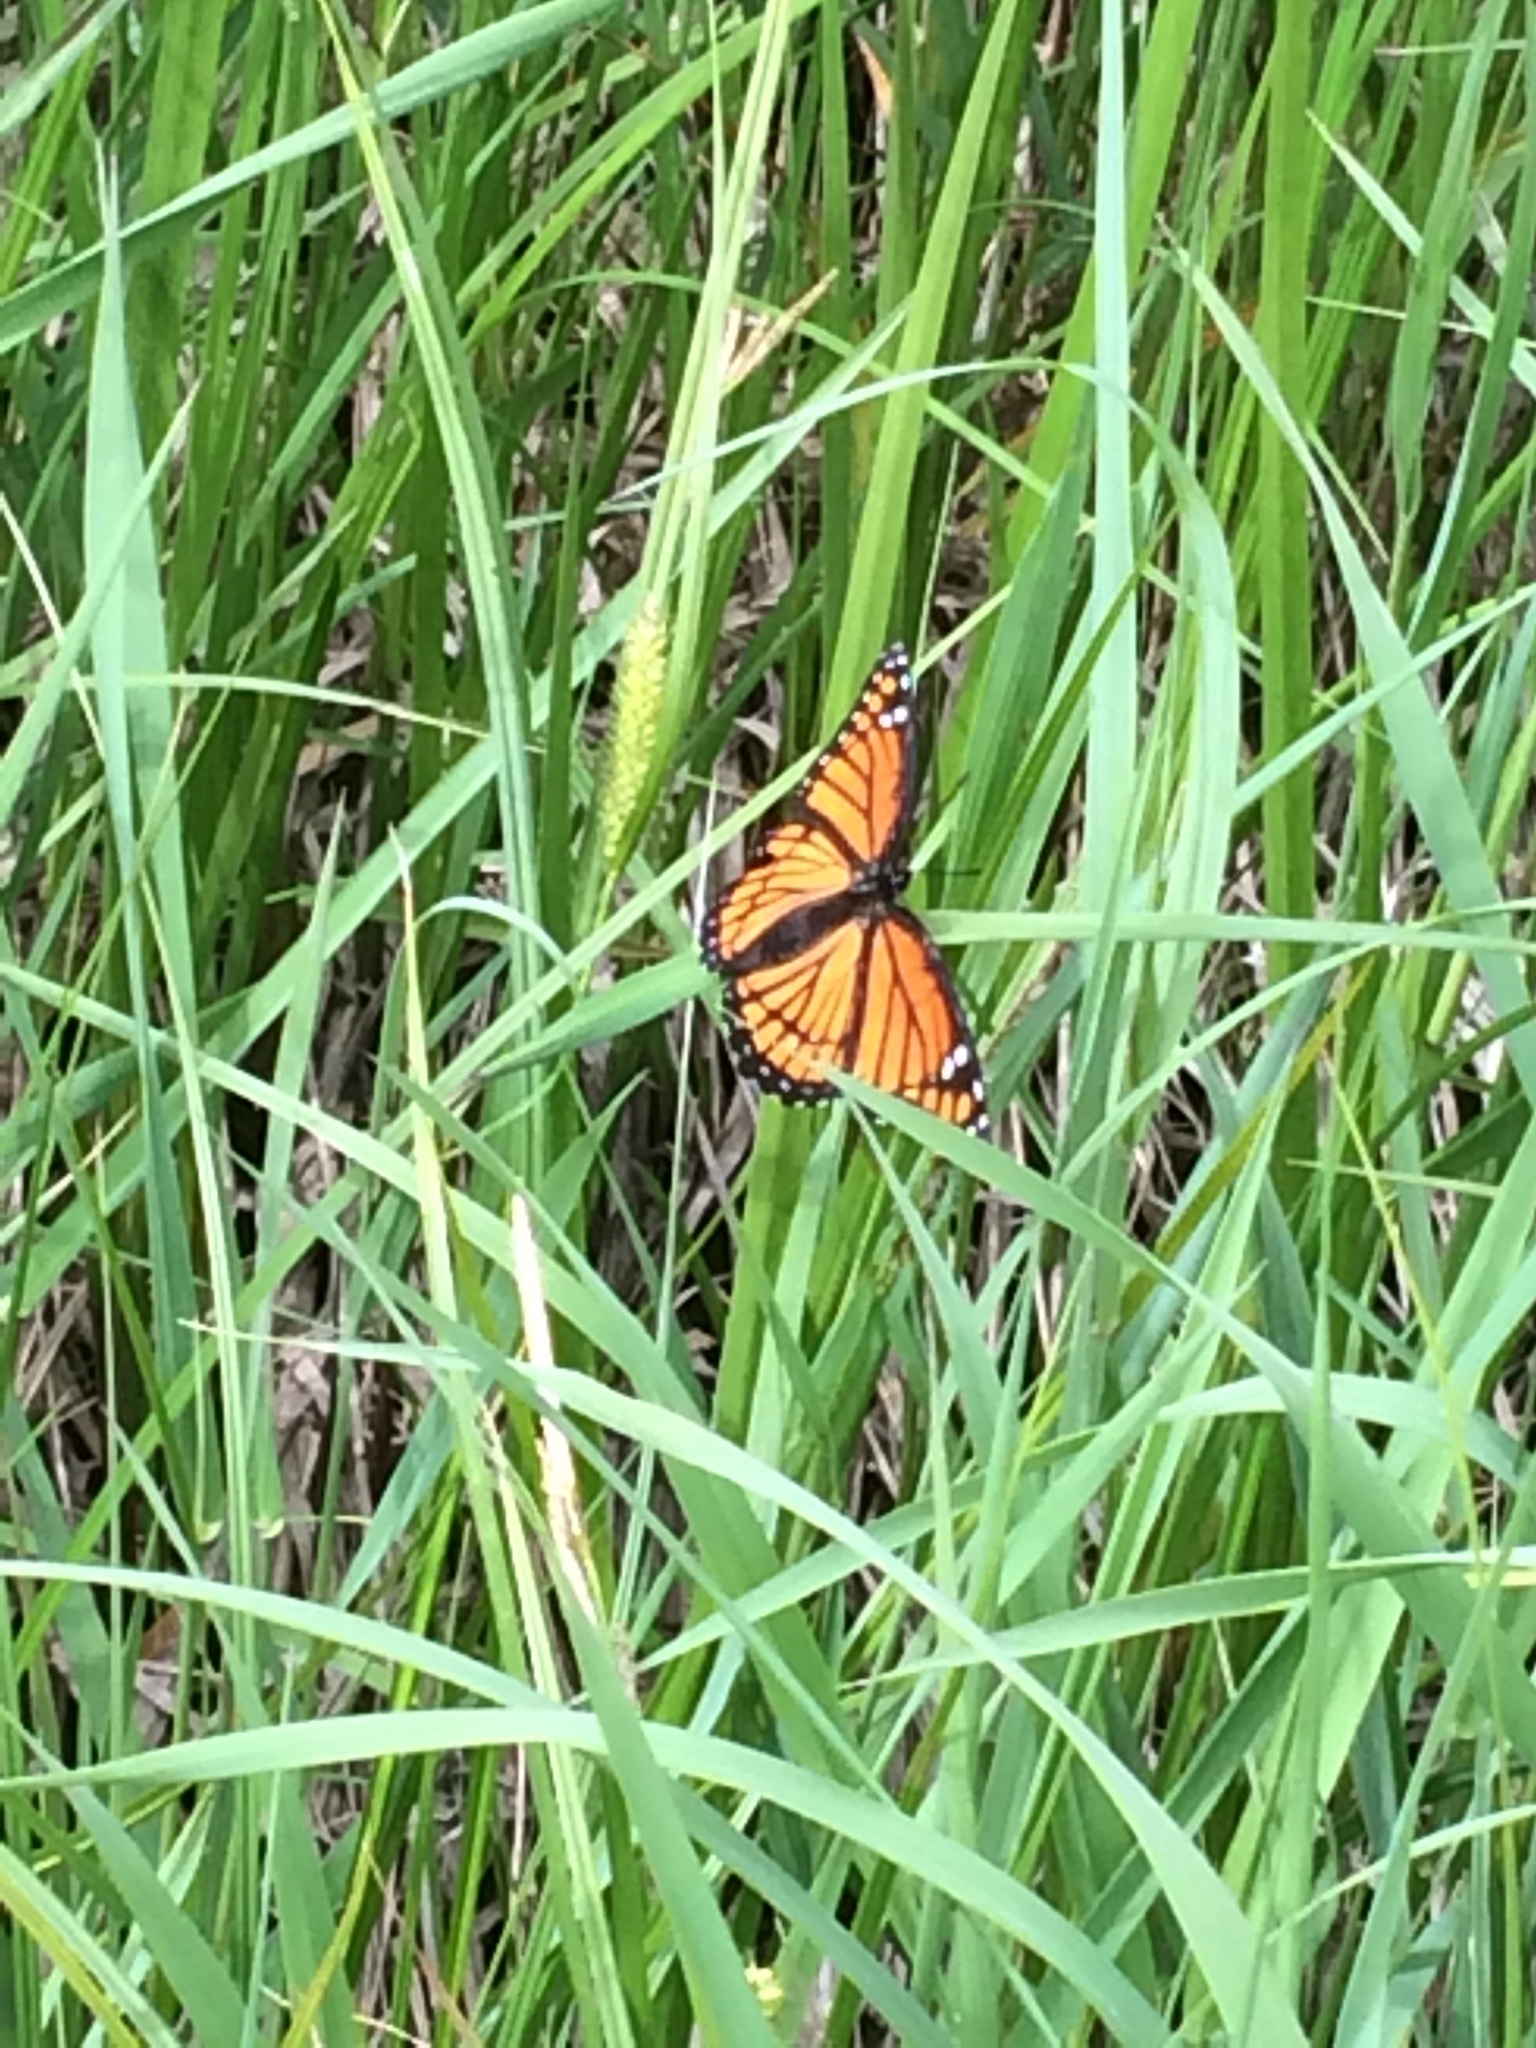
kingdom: Animalia
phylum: Arthropoda
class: Insecta
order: Lepidoptera
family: Nymphalidae
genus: Limenitis
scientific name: Limenitis archippus
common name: Viceroy
